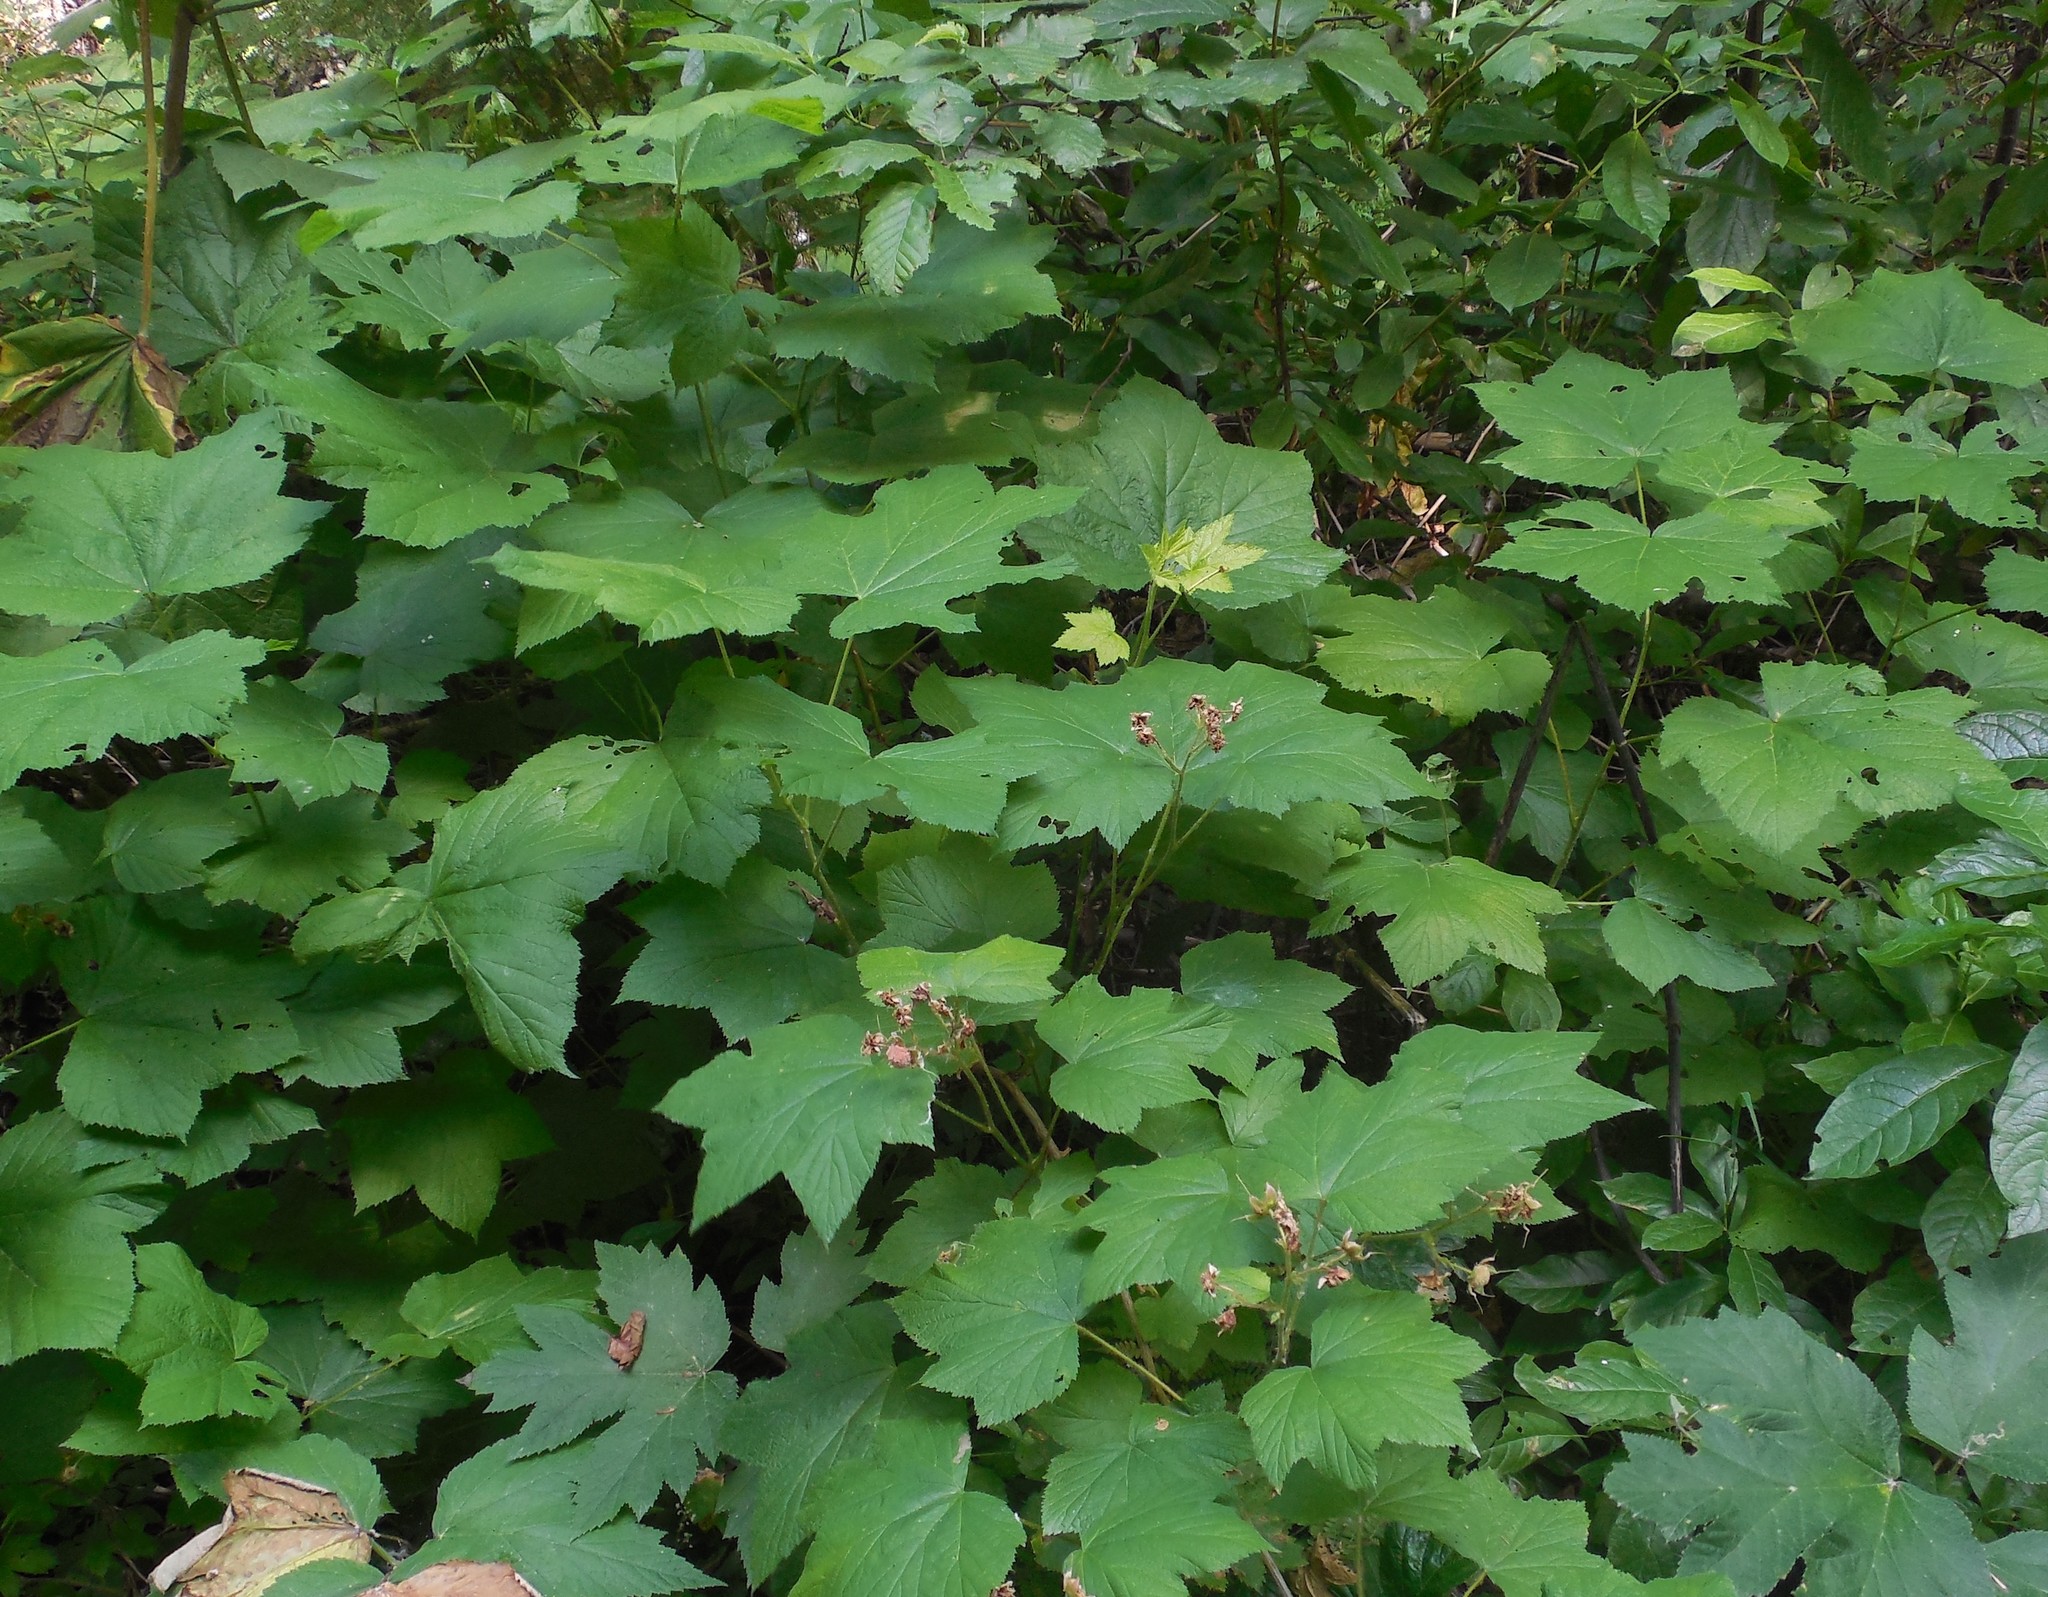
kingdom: Plantae
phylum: Tracheophyta
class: Magnoliopsida
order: Rosales
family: Rosaceae
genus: Rubus
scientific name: Rubus parviflorus
